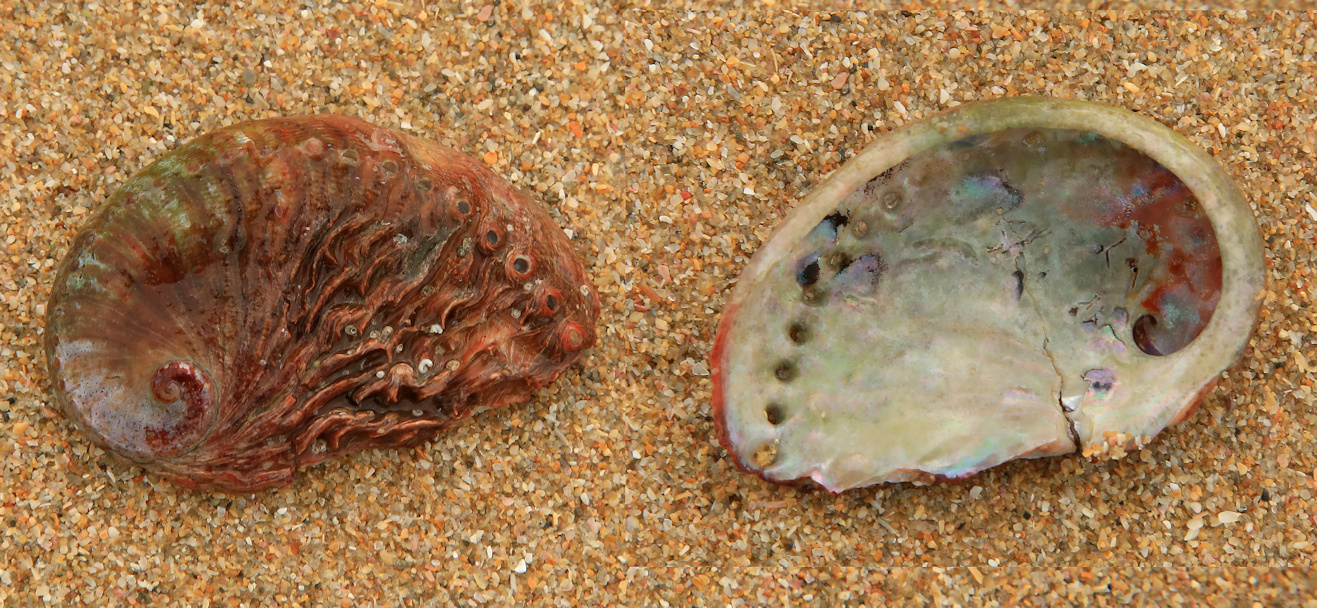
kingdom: Animalia
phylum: Mollusca
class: Gastropoda
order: Lepetellida
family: Haliotidae
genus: Haliotis
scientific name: Haliotis midae
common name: Perlemoen
